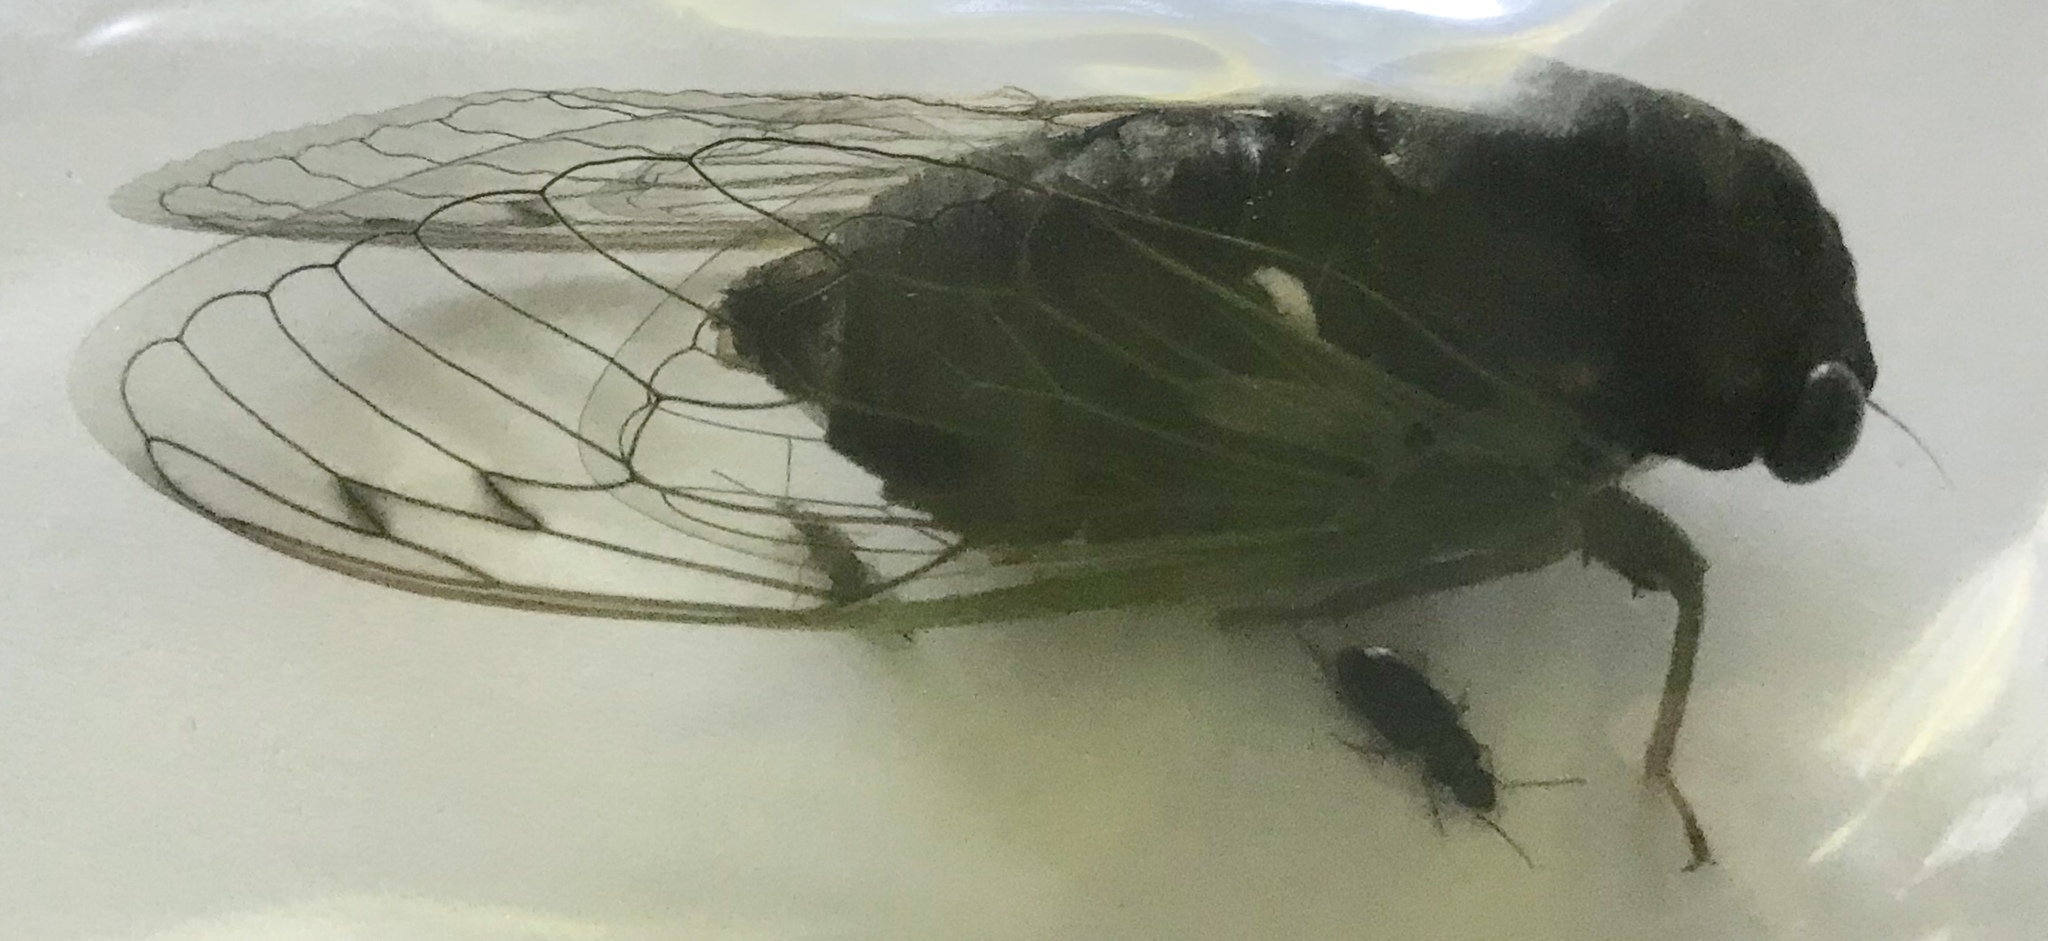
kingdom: Animalia
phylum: Arthropoda
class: Insecta
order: Hemiptera
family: Cicadidae
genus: Neotibicen
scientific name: Neotibicen tibicen
